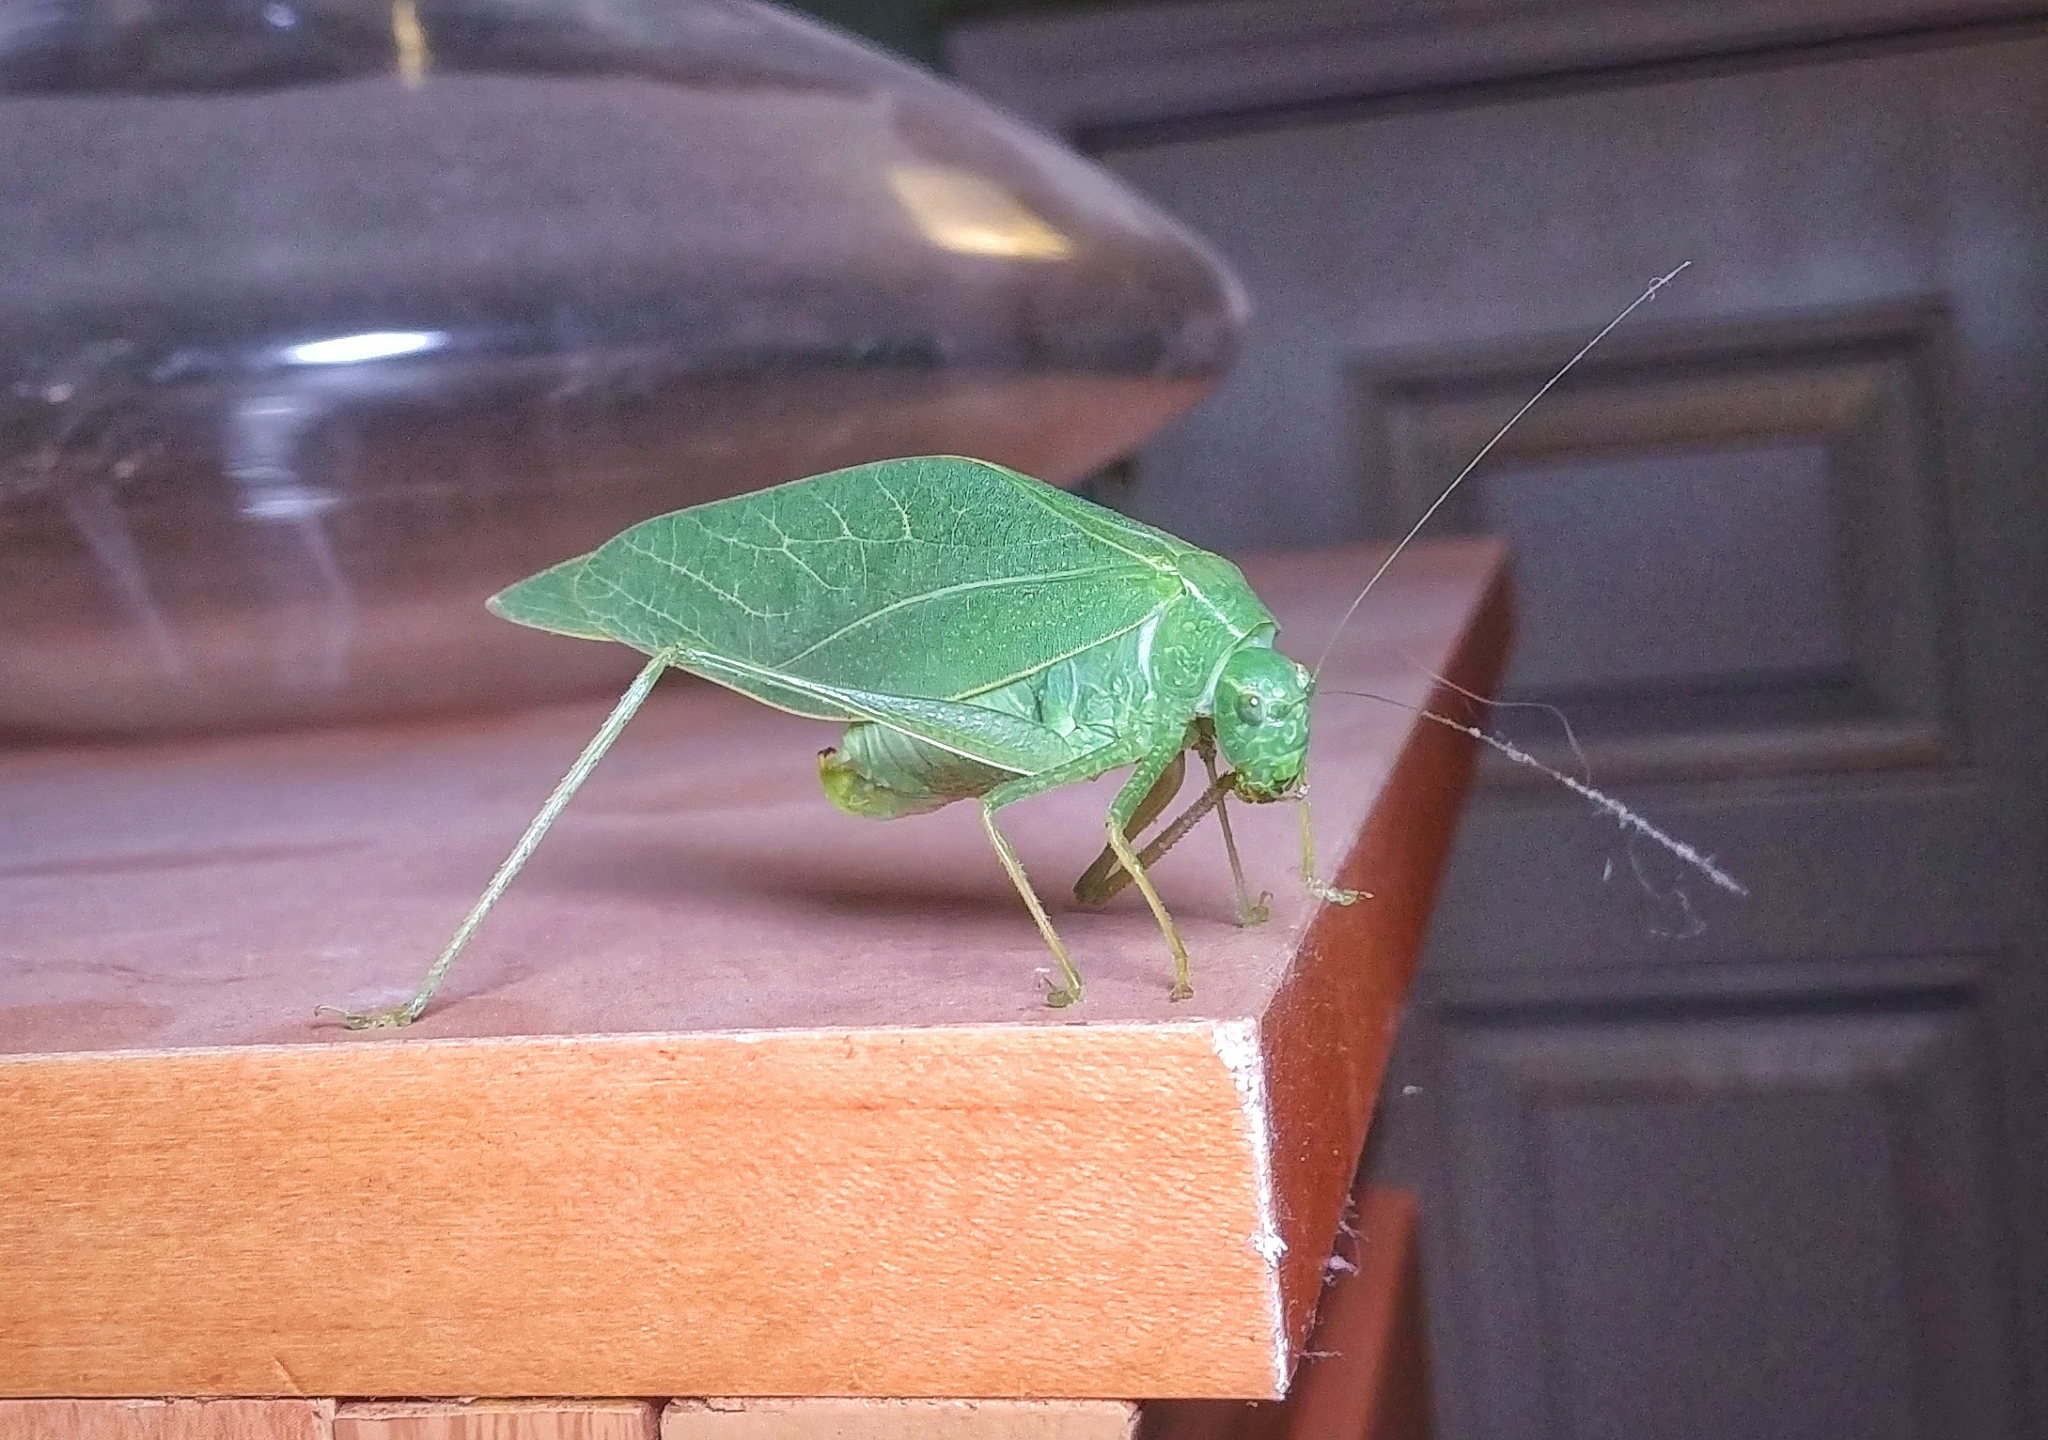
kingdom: Animalia
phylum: Arthropoda
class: Insecta
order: Orthoptera
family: Tettigoniidae
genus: Microcentrum
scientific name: Microcentrum rhombifolium
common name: Broad-winged katydid
